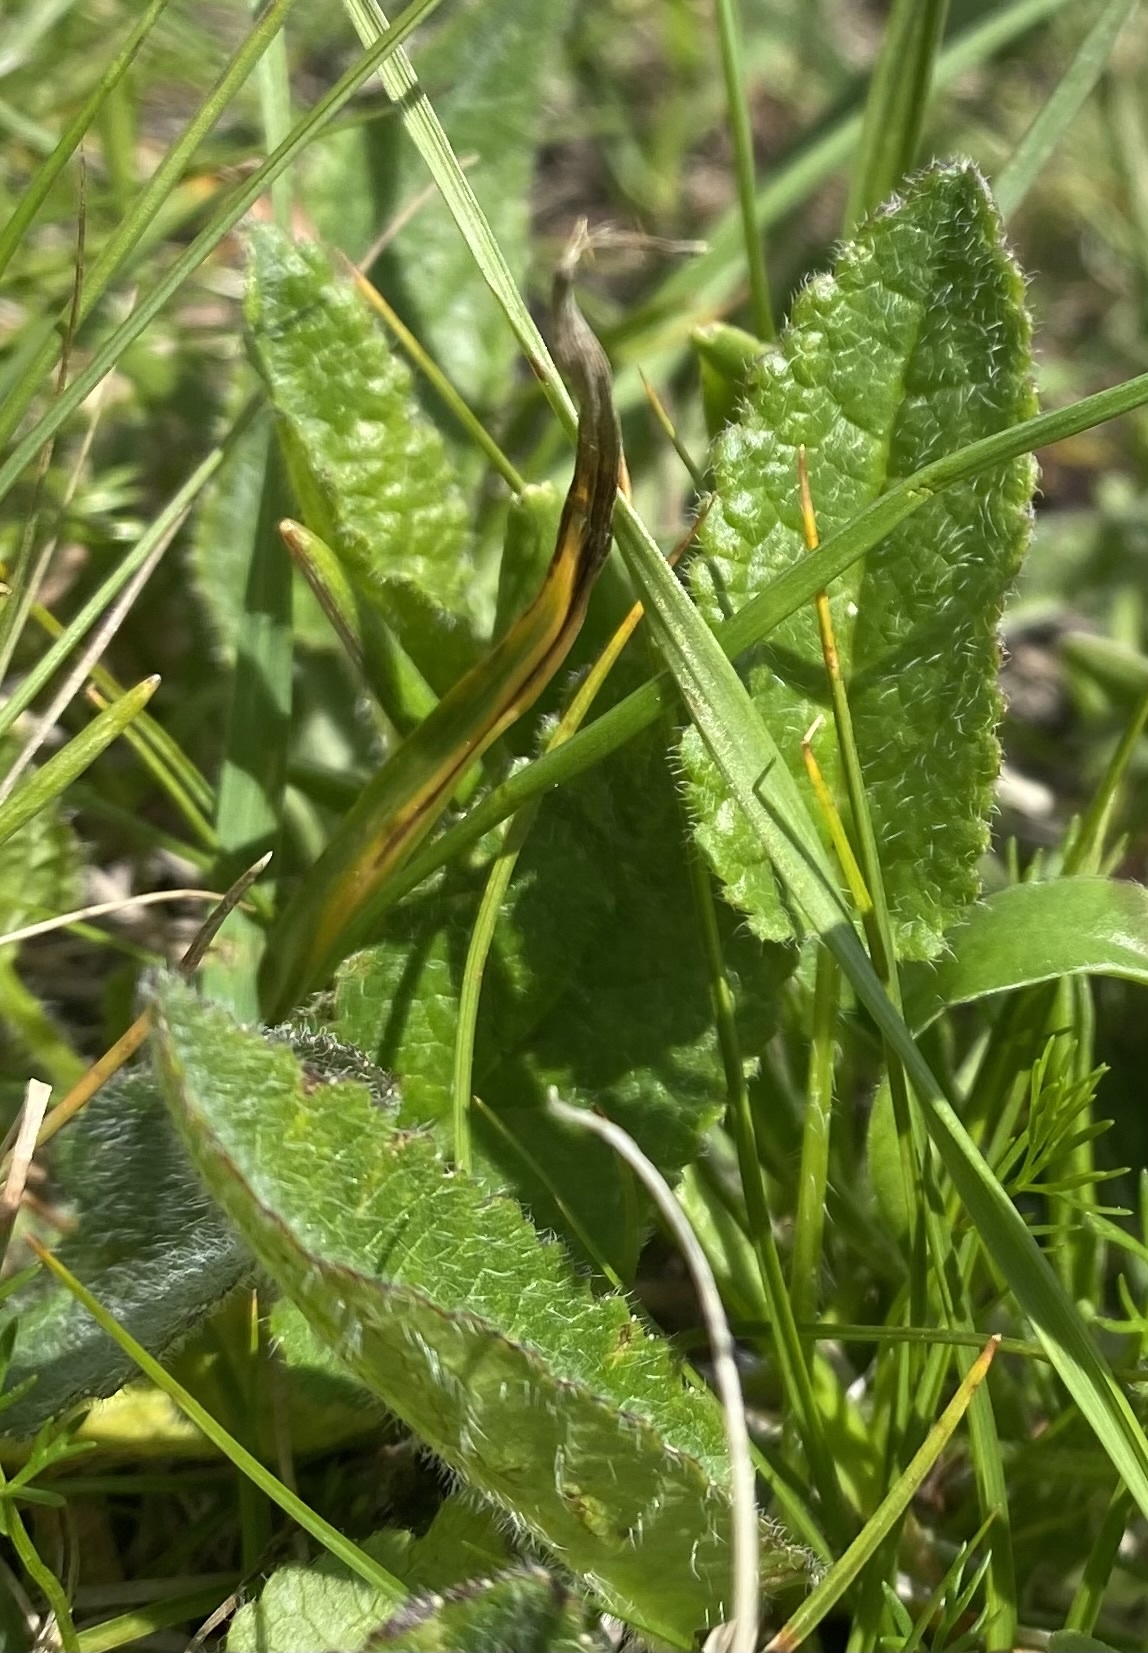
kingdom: Plantae
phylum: Tracheophyta
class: Magnoliopsida
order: Lamiales
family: Lamiaceae
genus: Betonica
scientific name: Betonica macrantha
